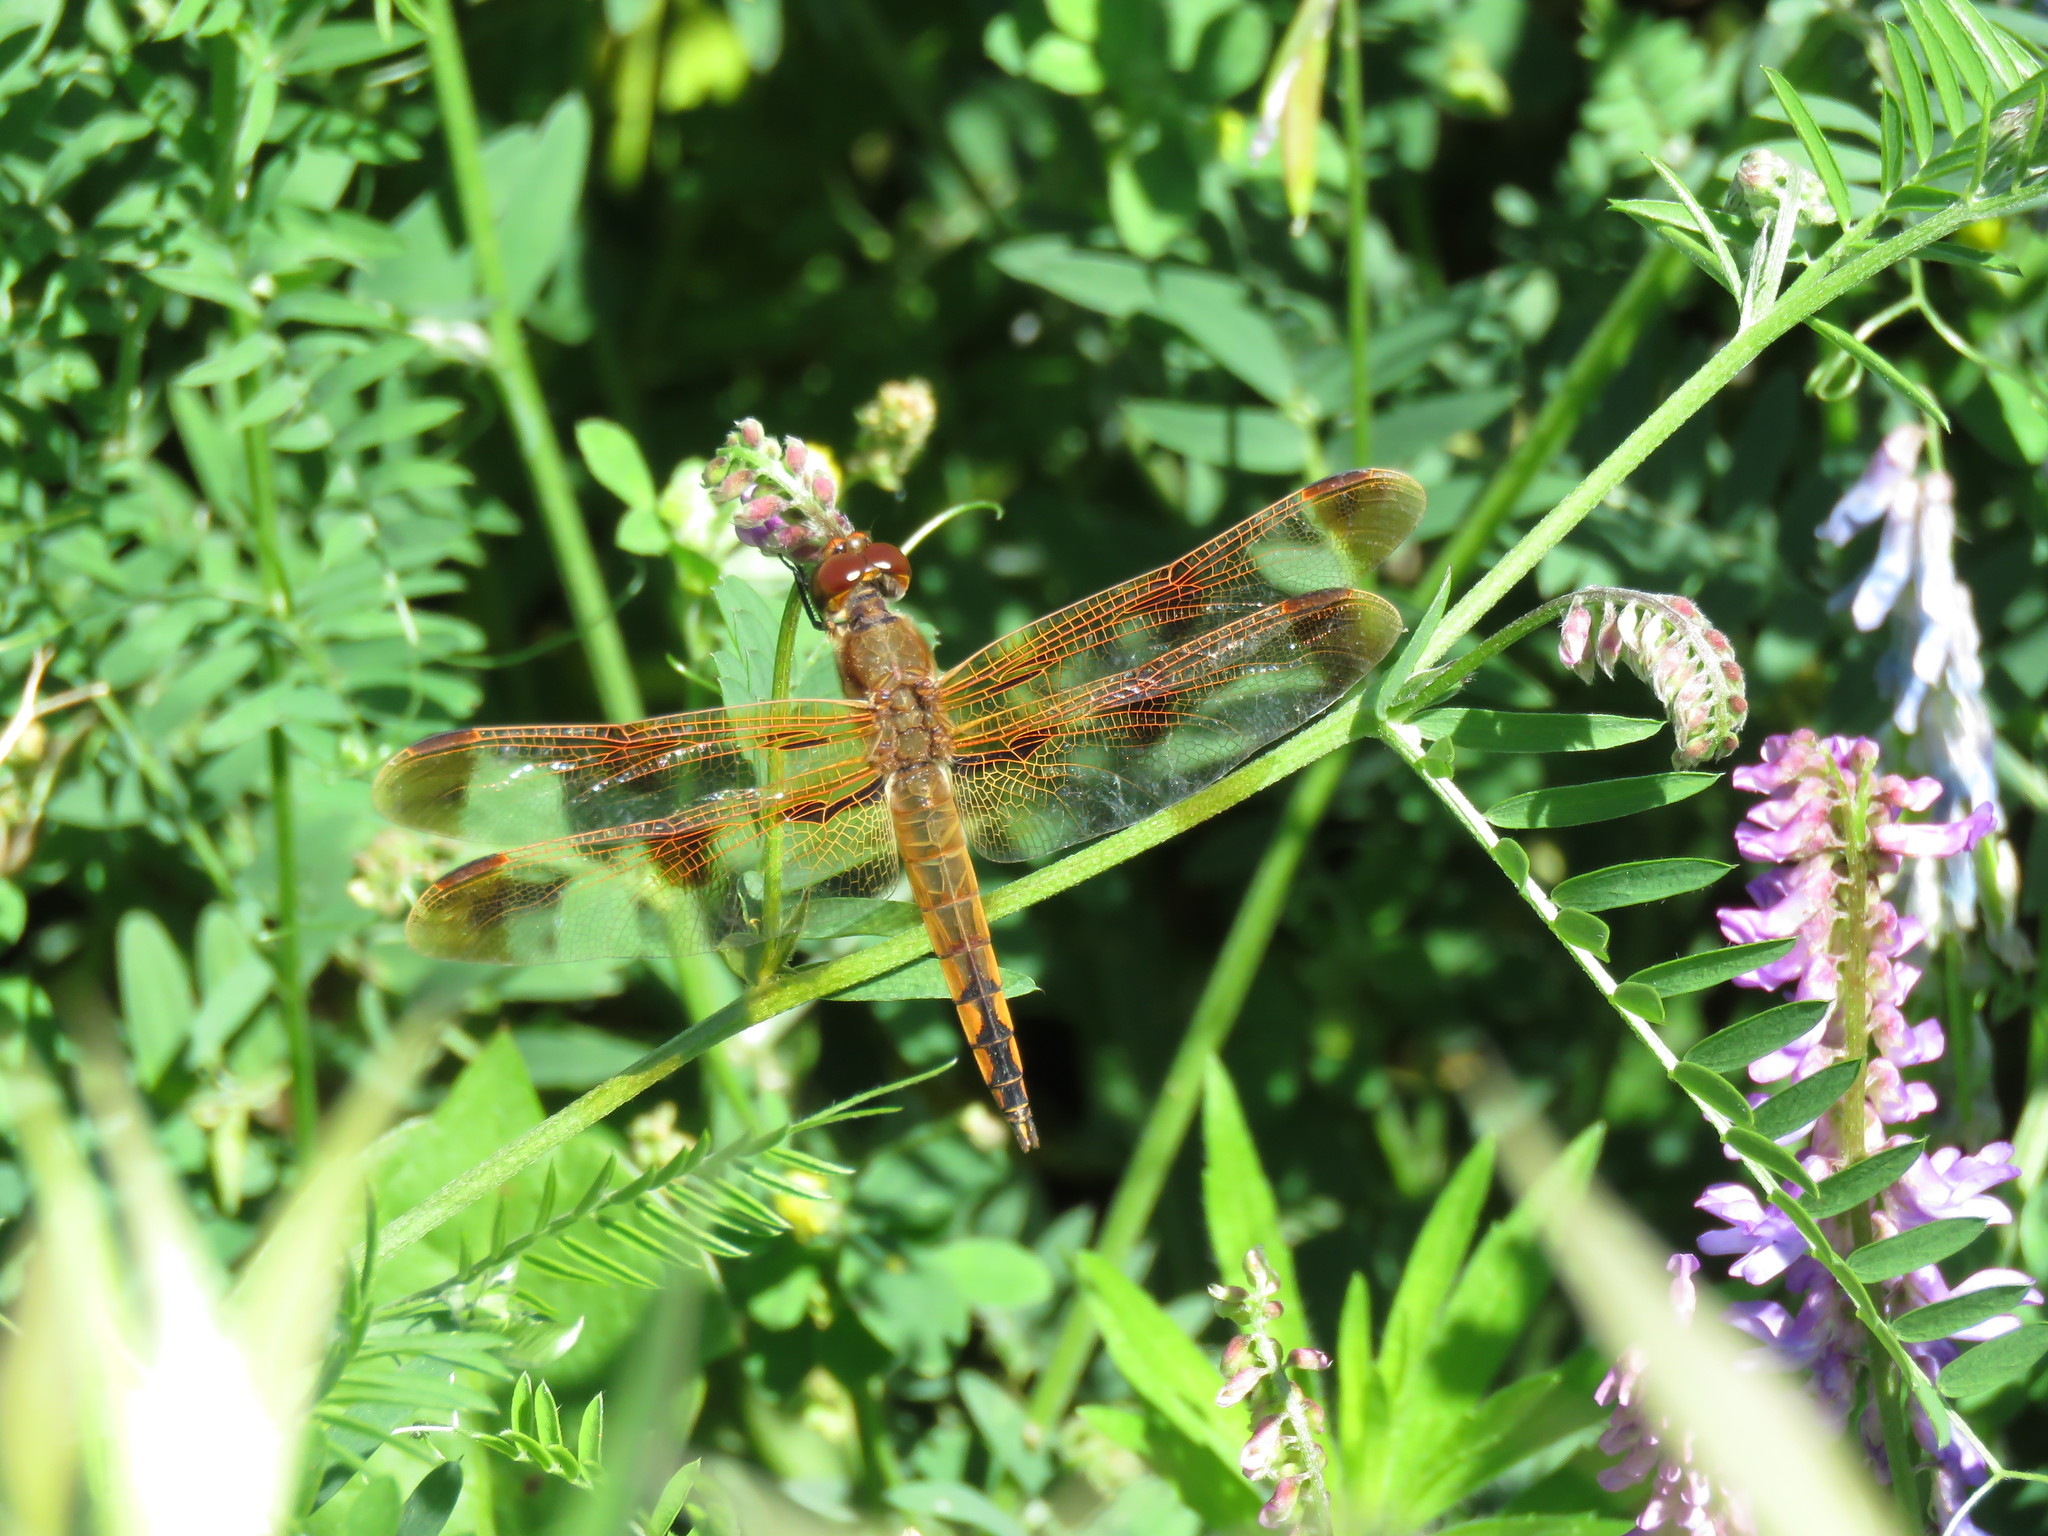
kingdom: Animalia
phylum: Arthropoda
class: Insecta
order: Odonata
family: Libellulidae
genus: Libellula
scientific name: Libellula semifasciata
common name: Painted skimmer
